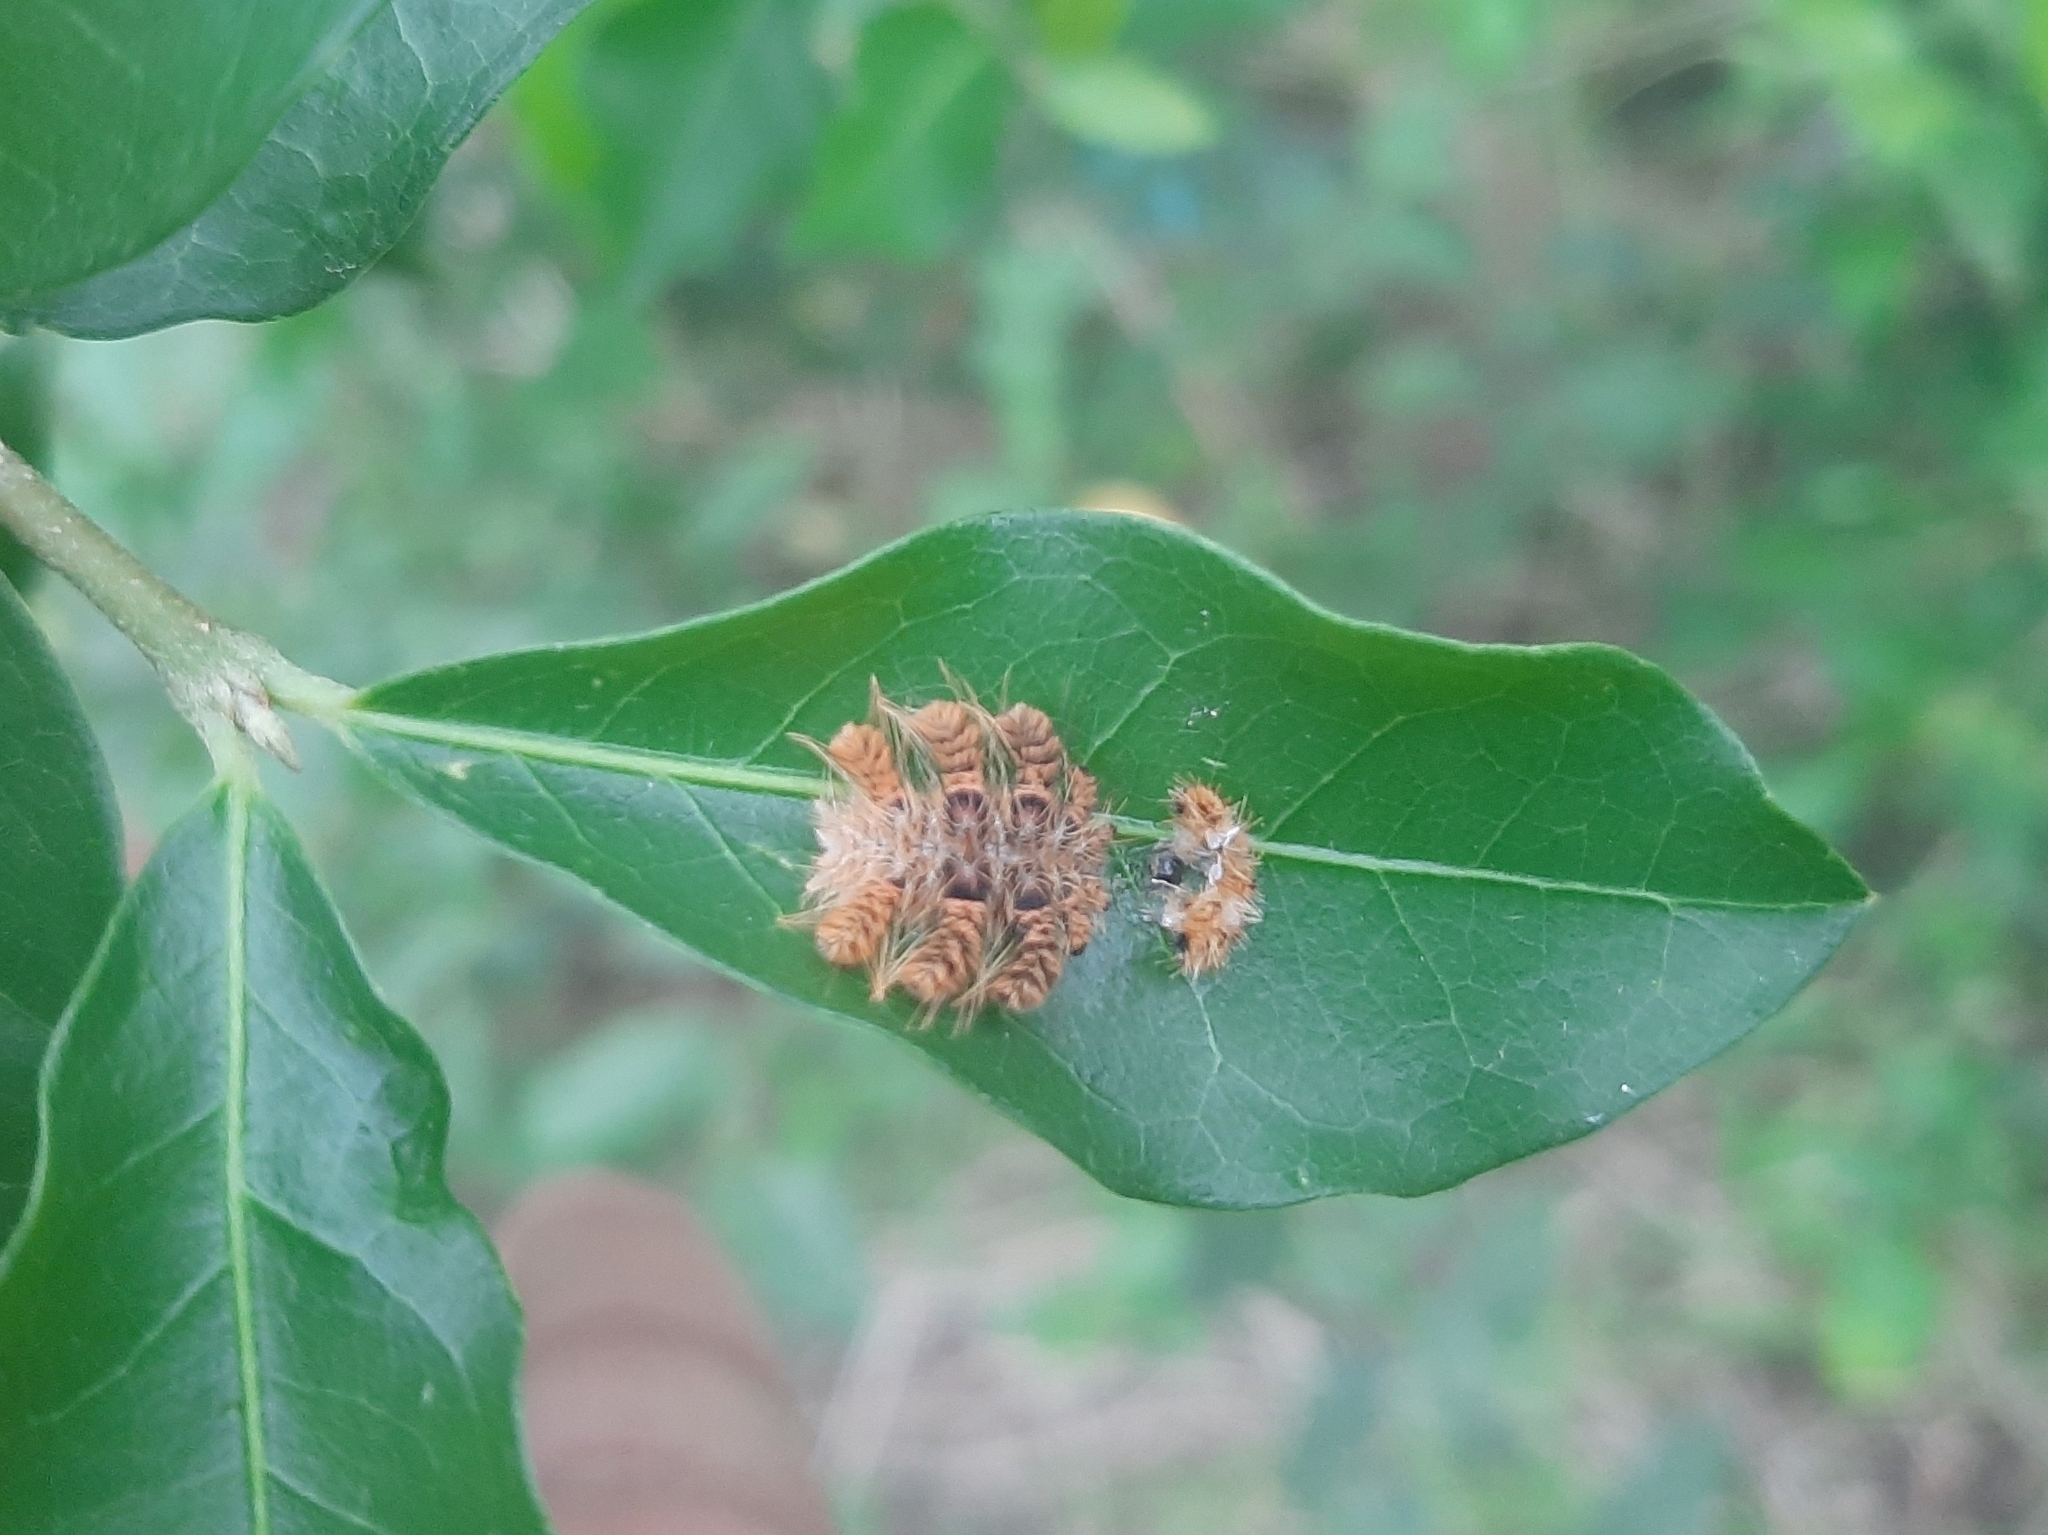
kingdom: Animalia
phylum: Arthropoda
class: Insecta
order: Lepidoptera
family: Limacodidae
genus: Phobetron
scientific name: Phobetron hipparchia
